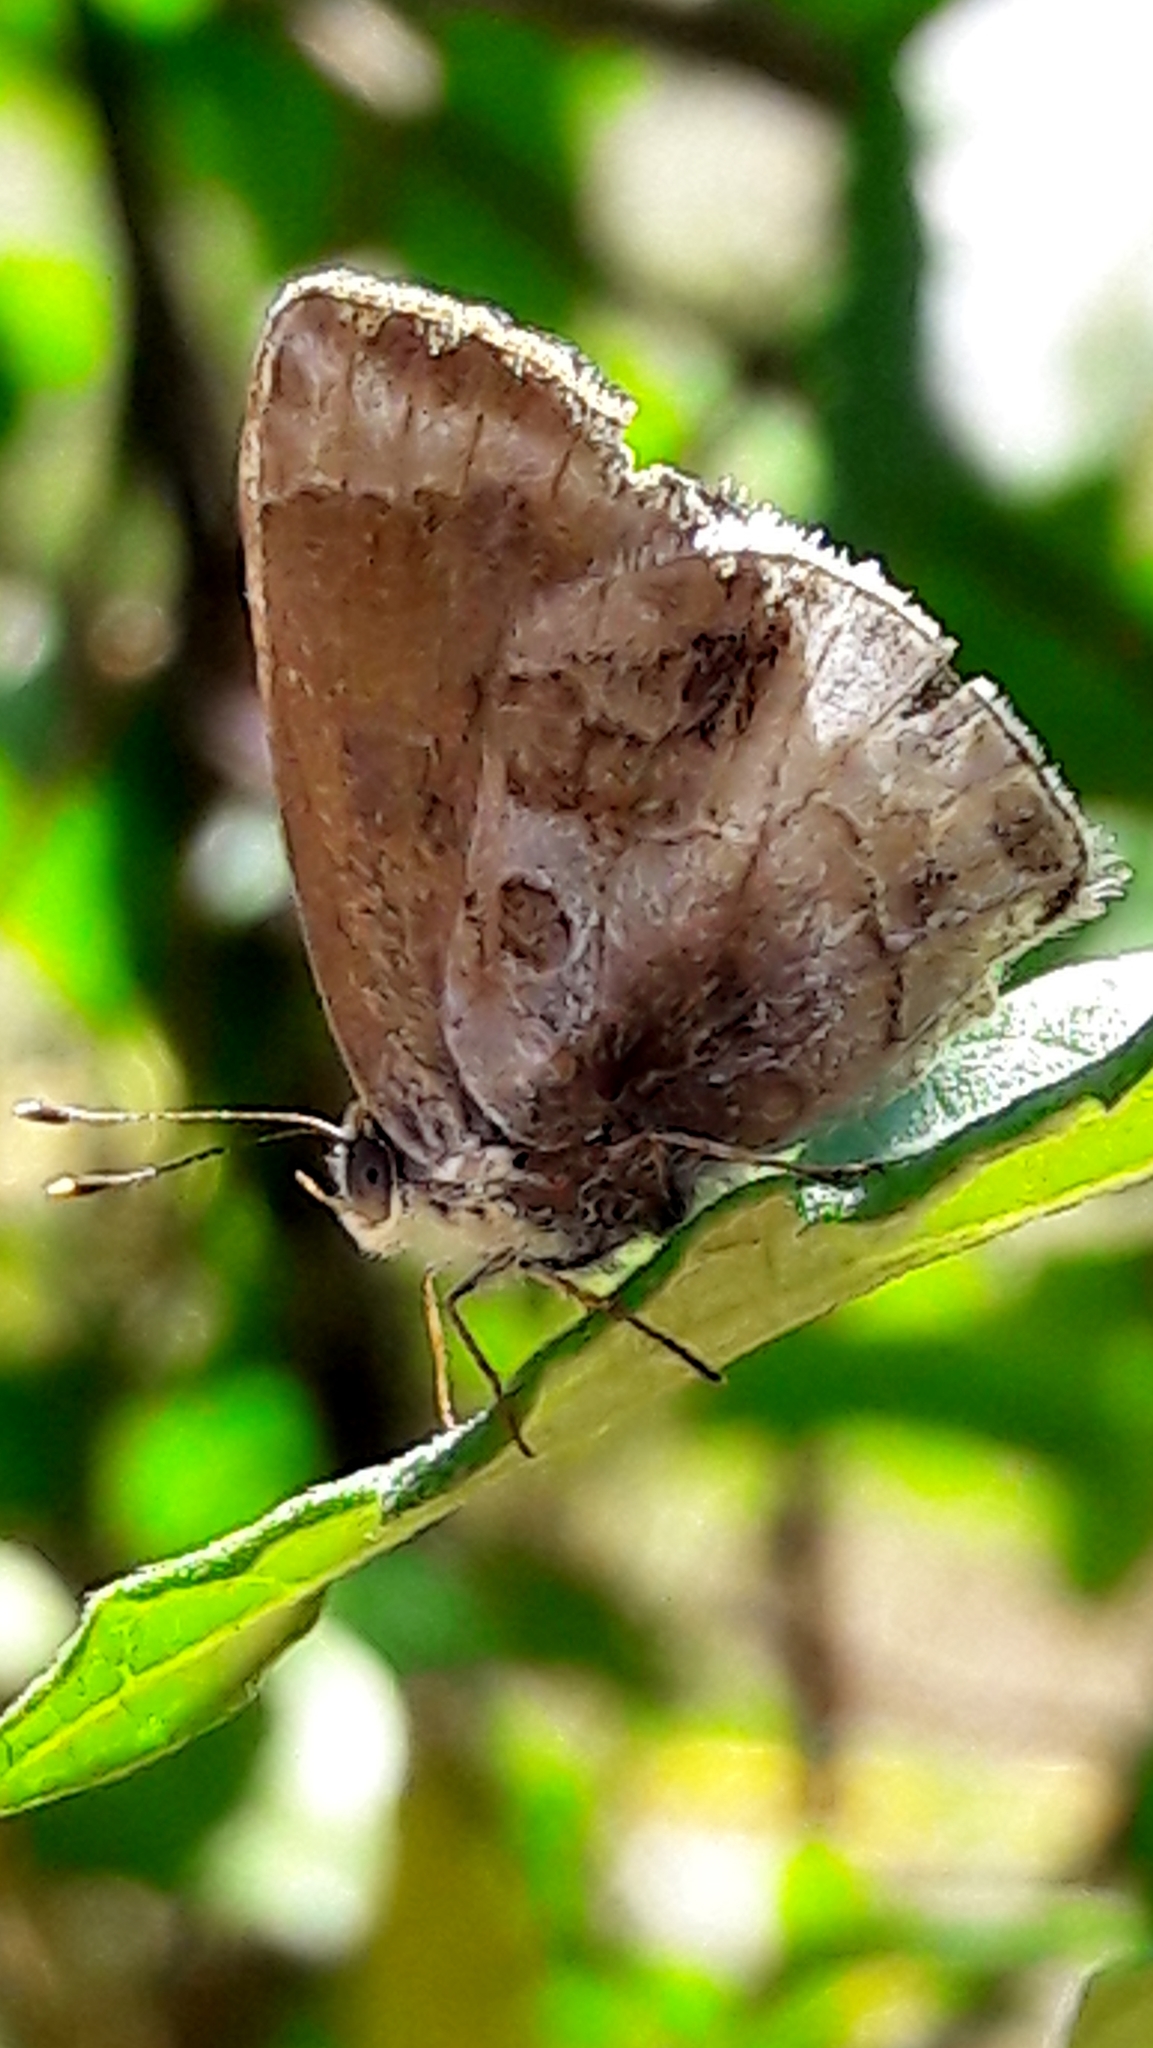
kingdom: Animalia
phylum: Arthropoda
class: Insecta
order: Lepidoptera
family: Lycaenidae
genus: Strymon
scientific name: Strymon bazochii
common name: Lantana scrub-hairstreak
